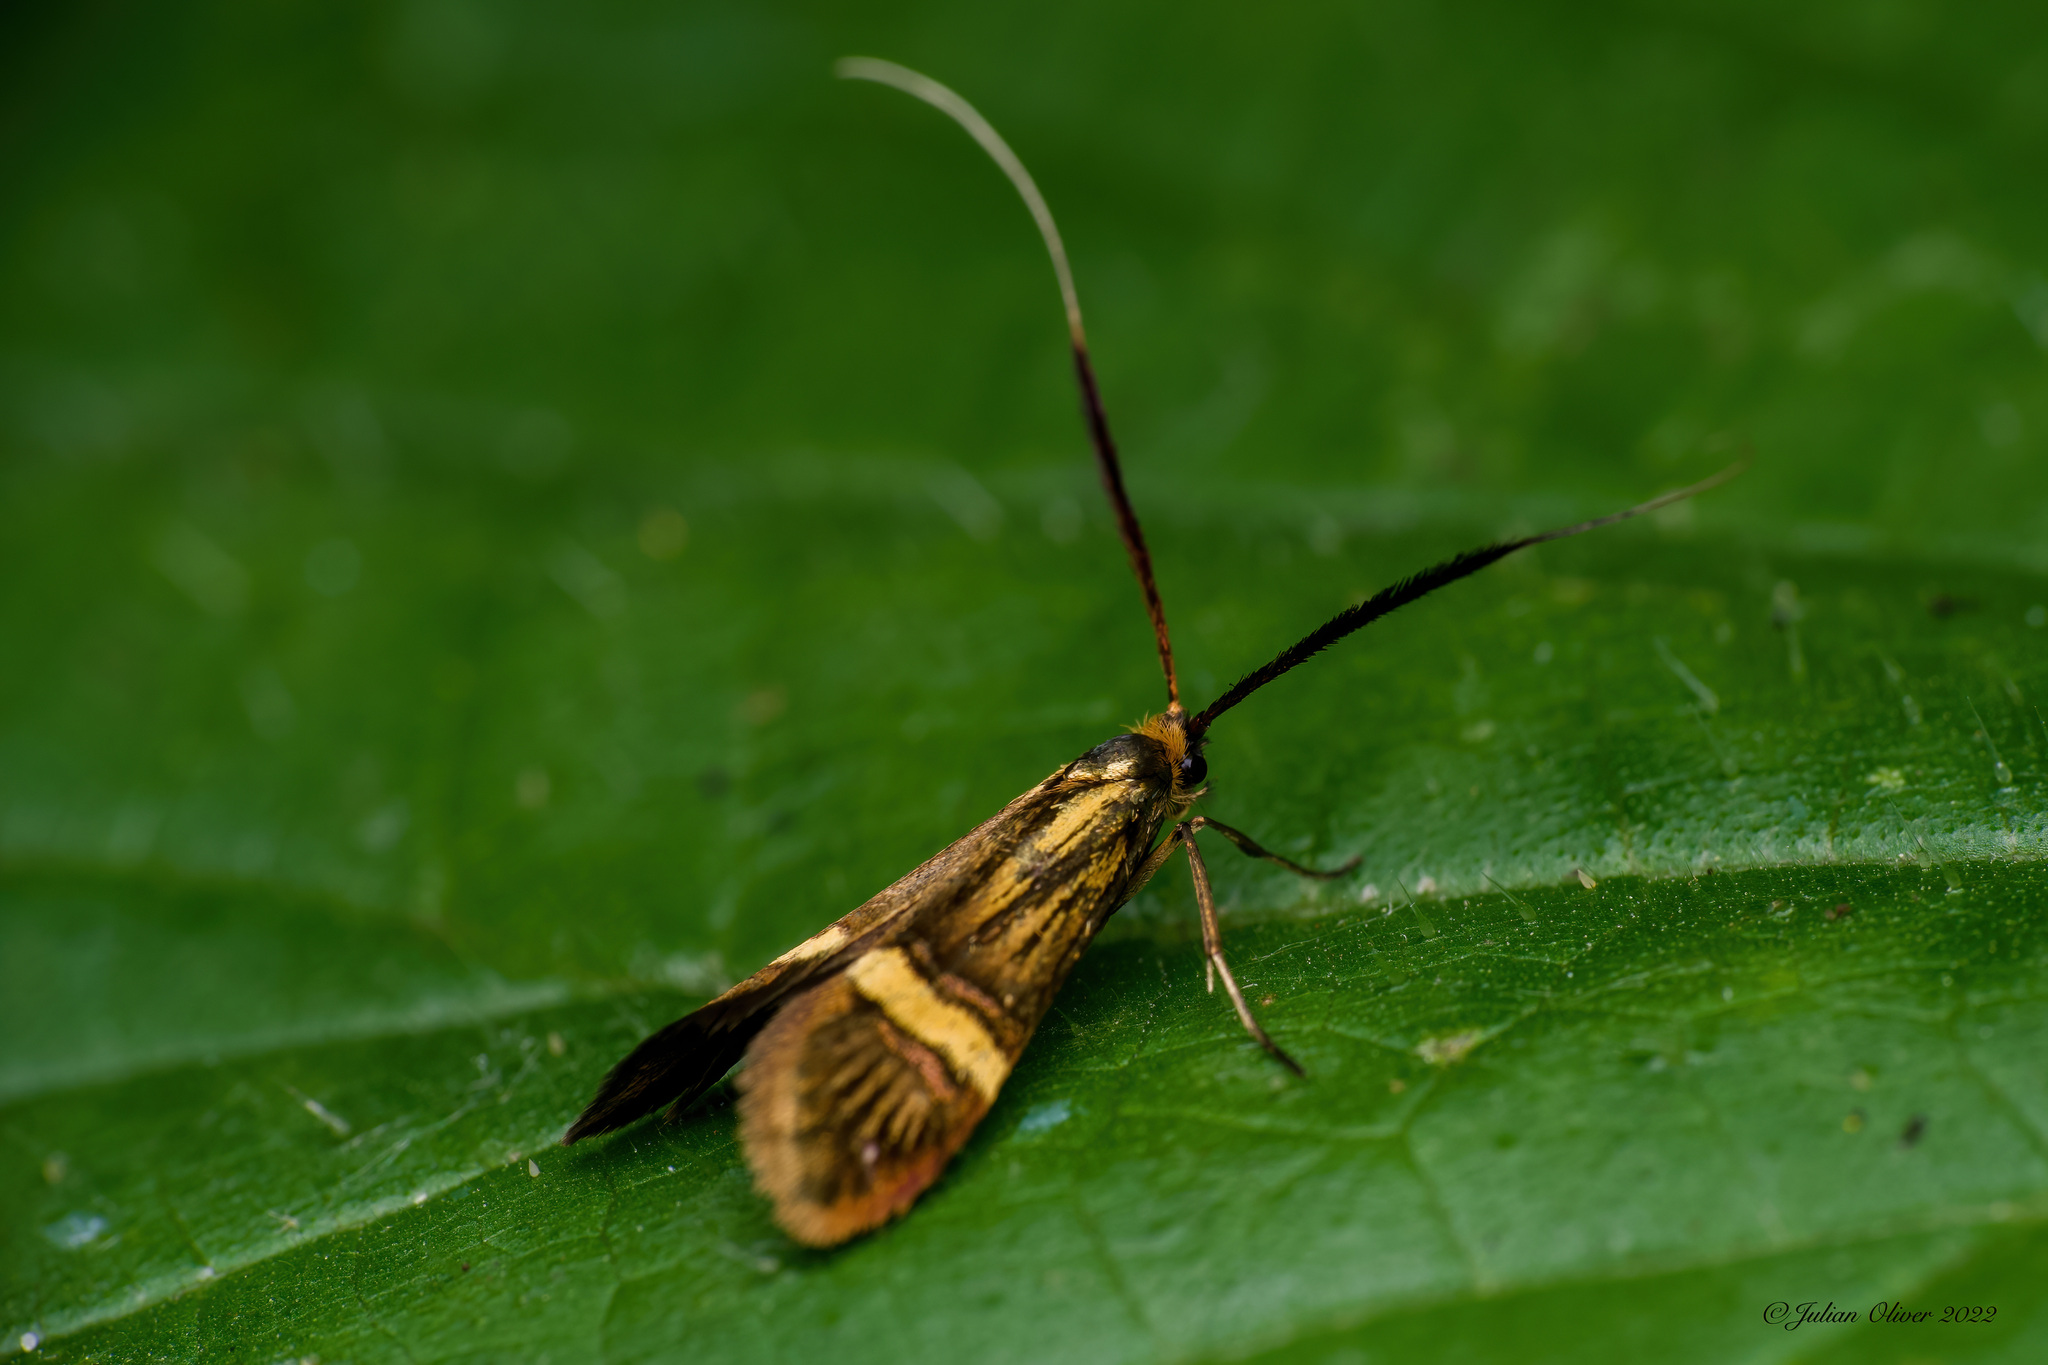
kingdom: Animalia
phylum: Arthropoda
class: Insecta
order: Lepidoptera
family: Adelidae
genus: Nemophora
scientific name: Nemophora degeerella
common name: Yellow-barred long-horn
